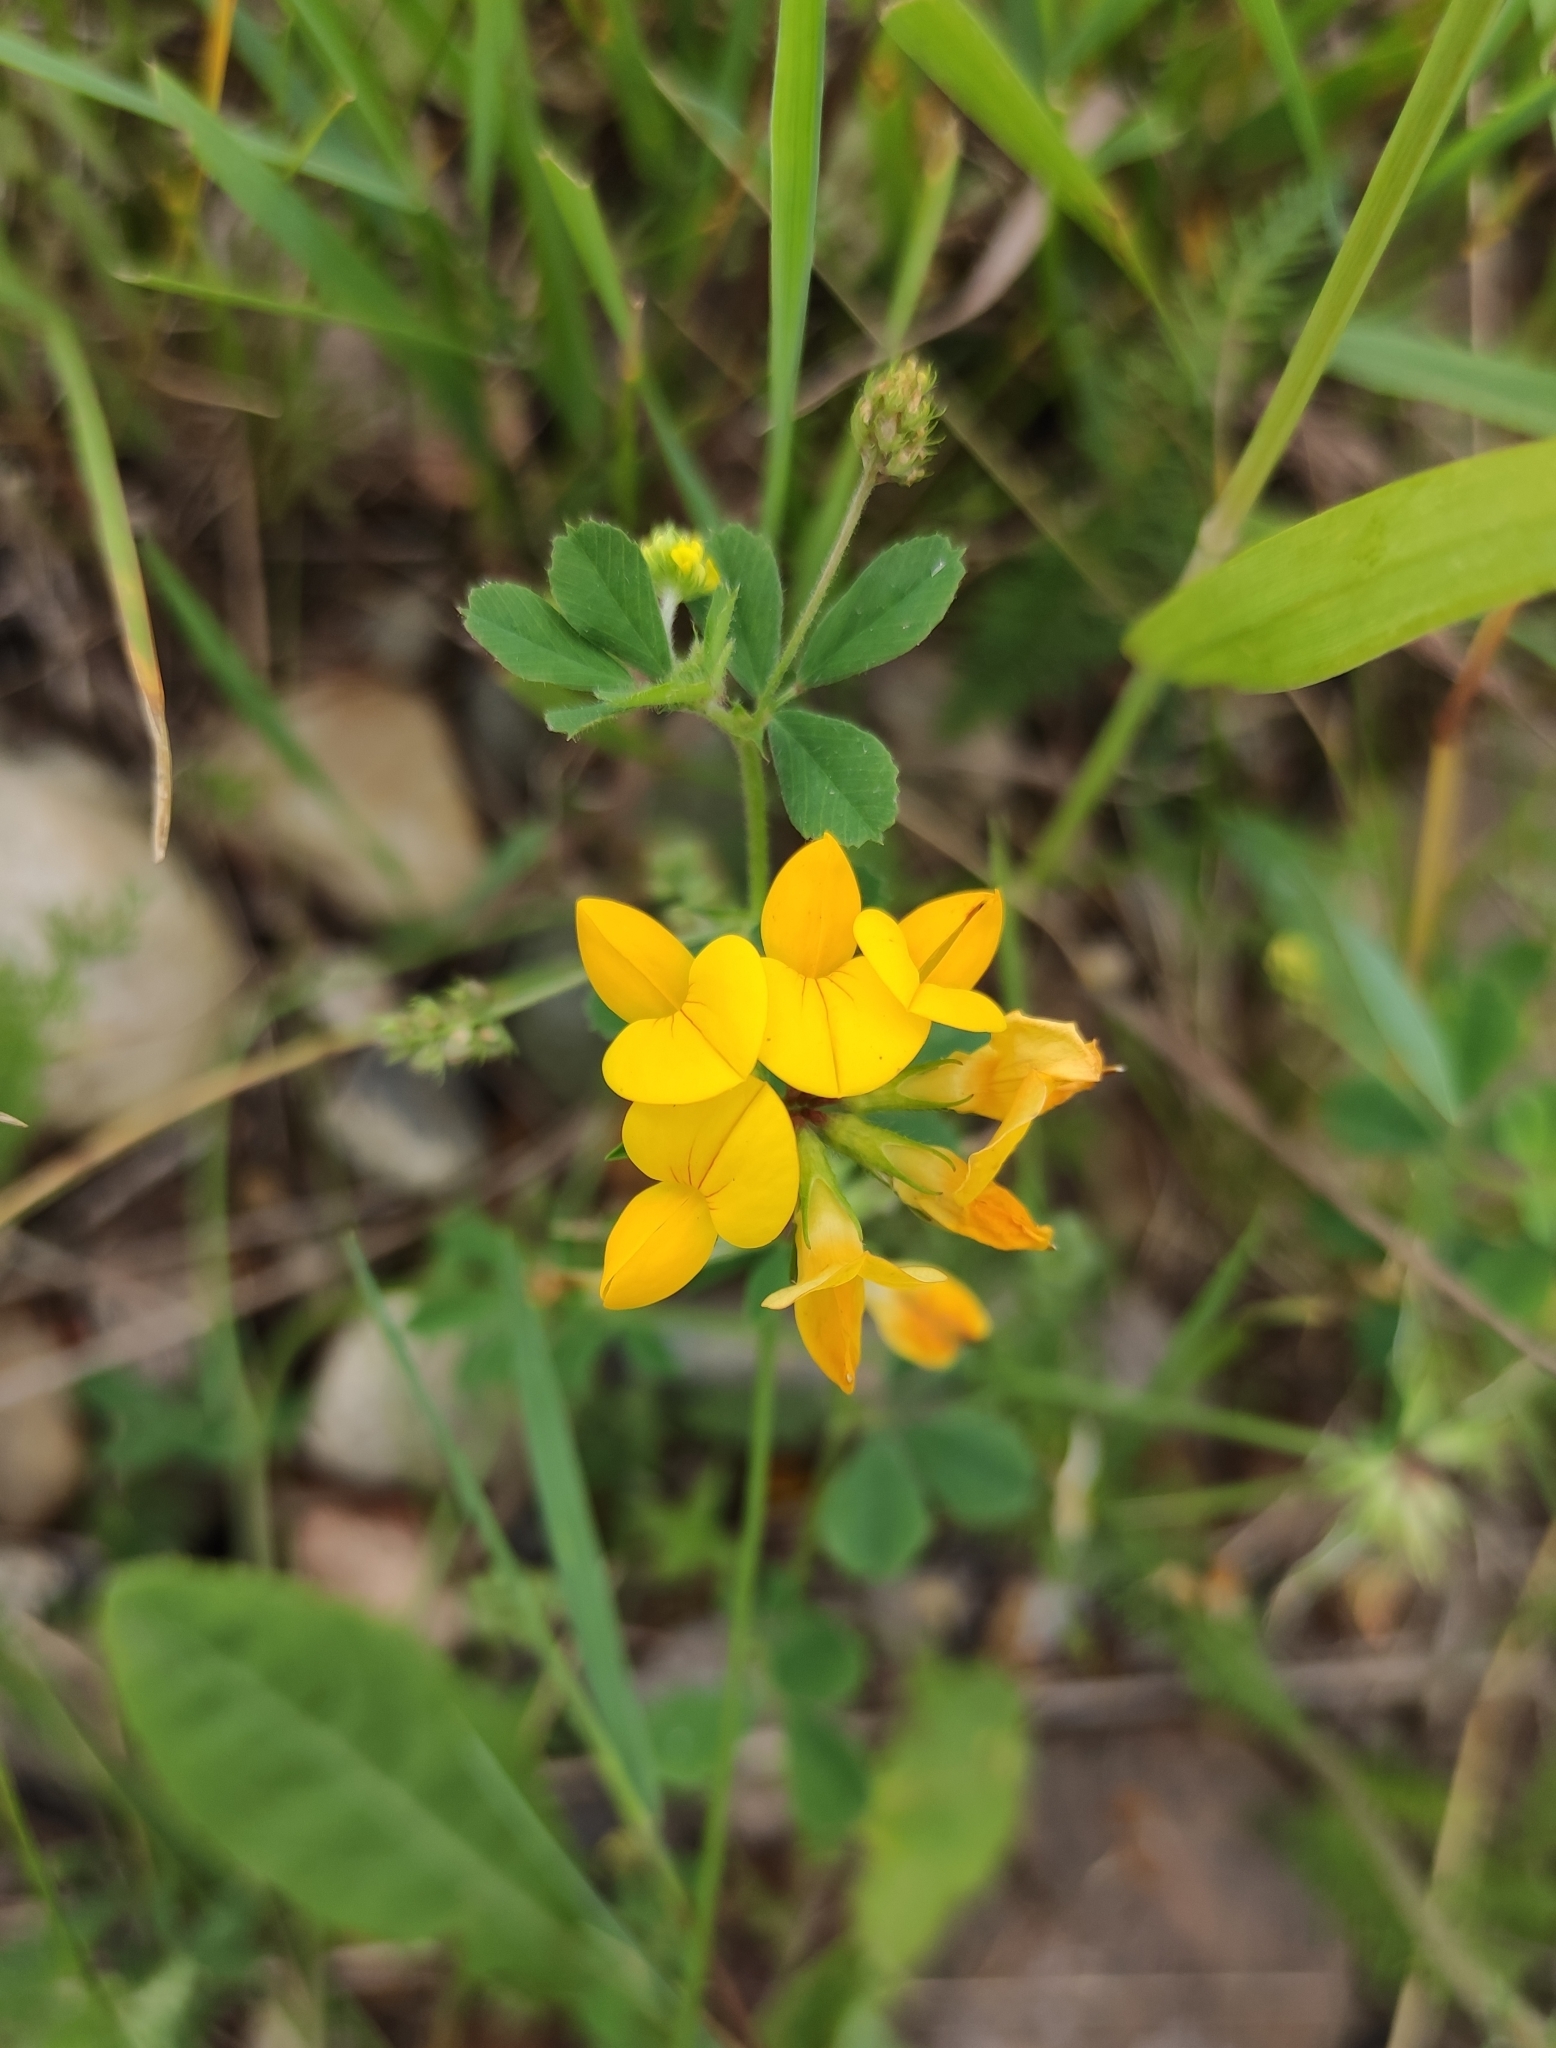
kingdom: Plantae
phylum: Tracheophyta
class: Magnoliopsida
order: Fabales
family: Fabaceae
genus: Lotus
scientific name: Lotus corniculatus
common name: Common bird's-foot-trefoil
